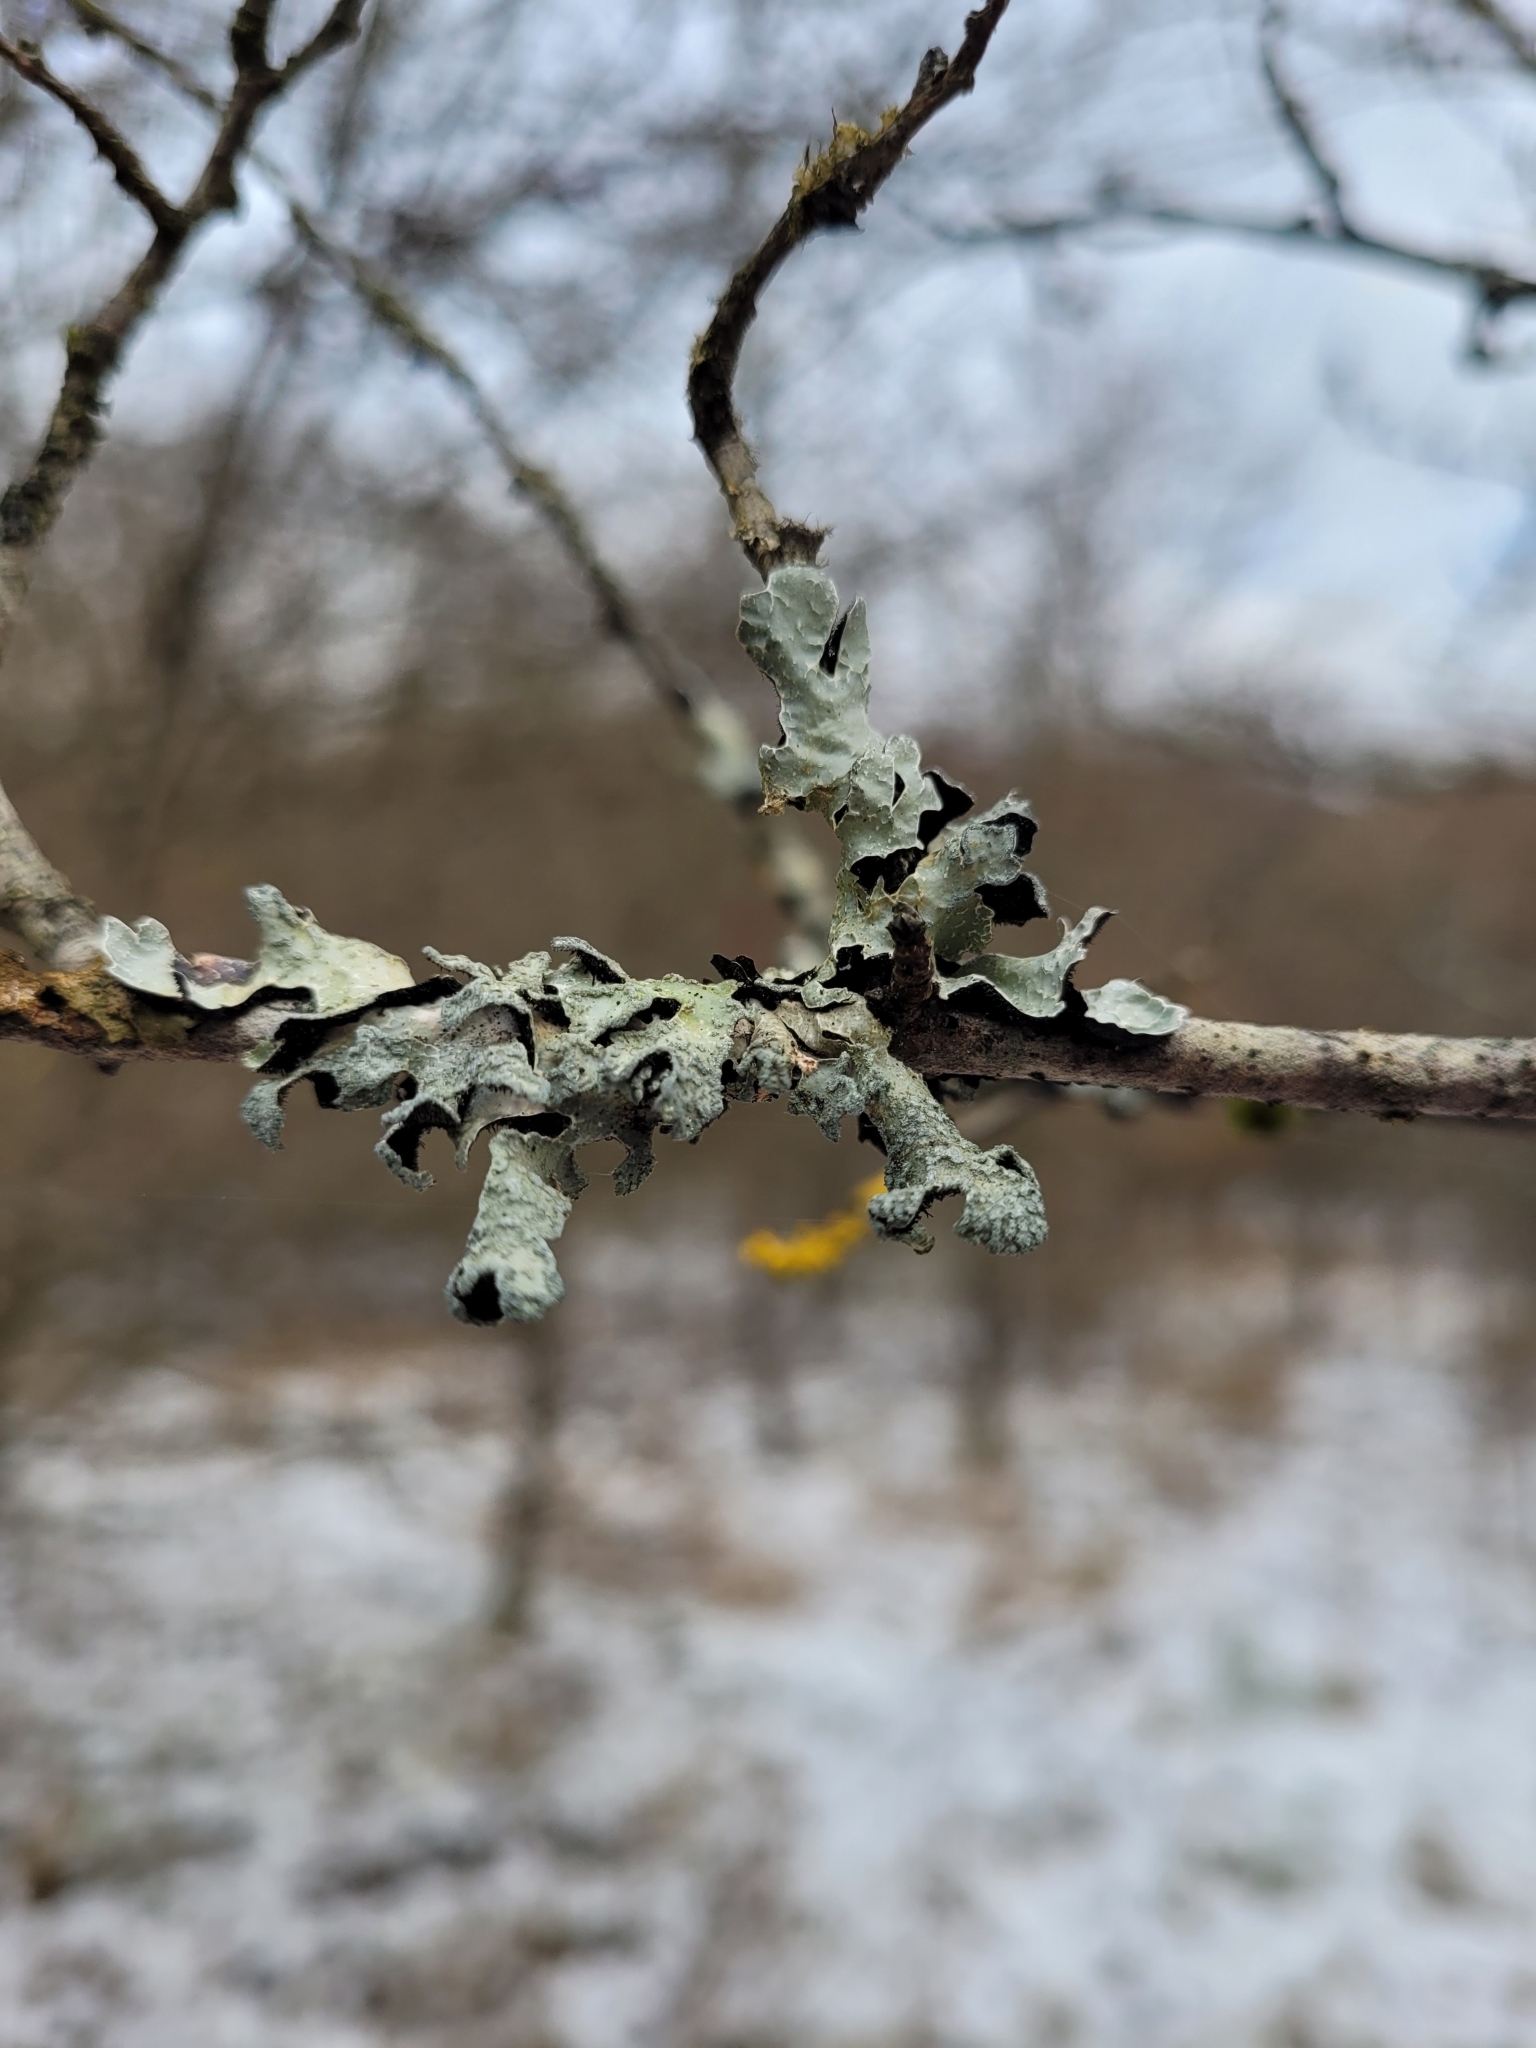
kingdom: Fungi
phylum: Ascomycota
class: Lecanoromycetes
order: Lecanorales
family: Parmeliaceae
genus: Parmelia
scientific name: Parmelia sulcata
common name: Netted shield lichen
